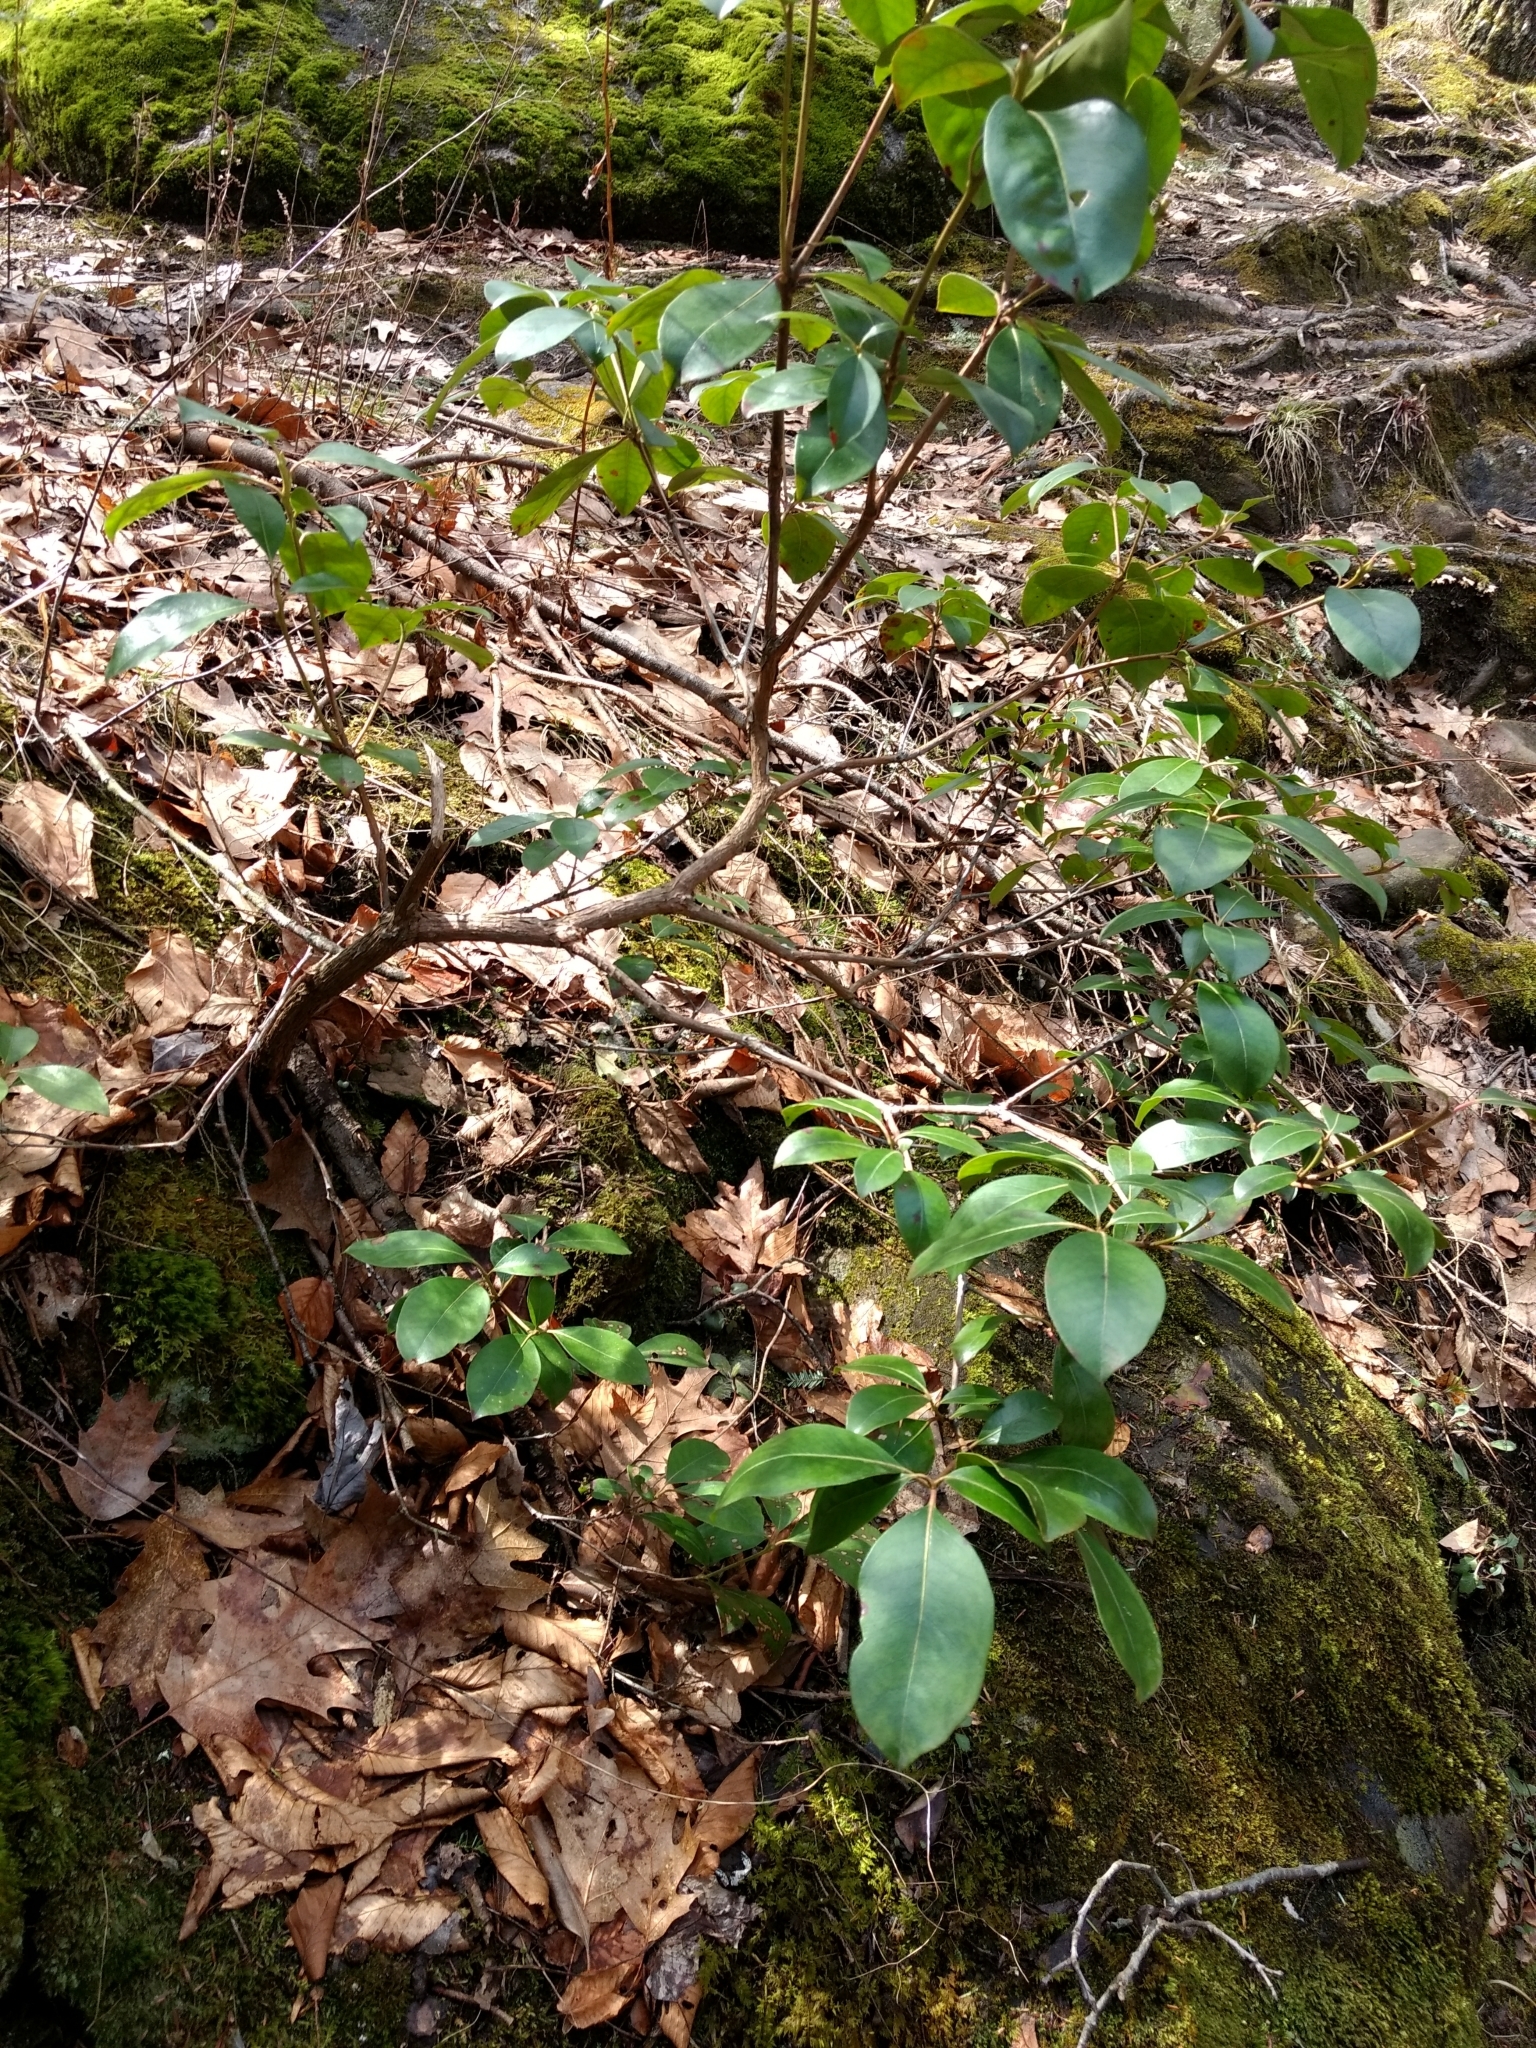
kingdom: Plantae
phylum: Tracheophyta
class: Magnoliopsida
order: Ericales
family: Ericaceae
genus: Kalmia
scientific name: Kalmia latifolia
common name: Mountain-laurel
